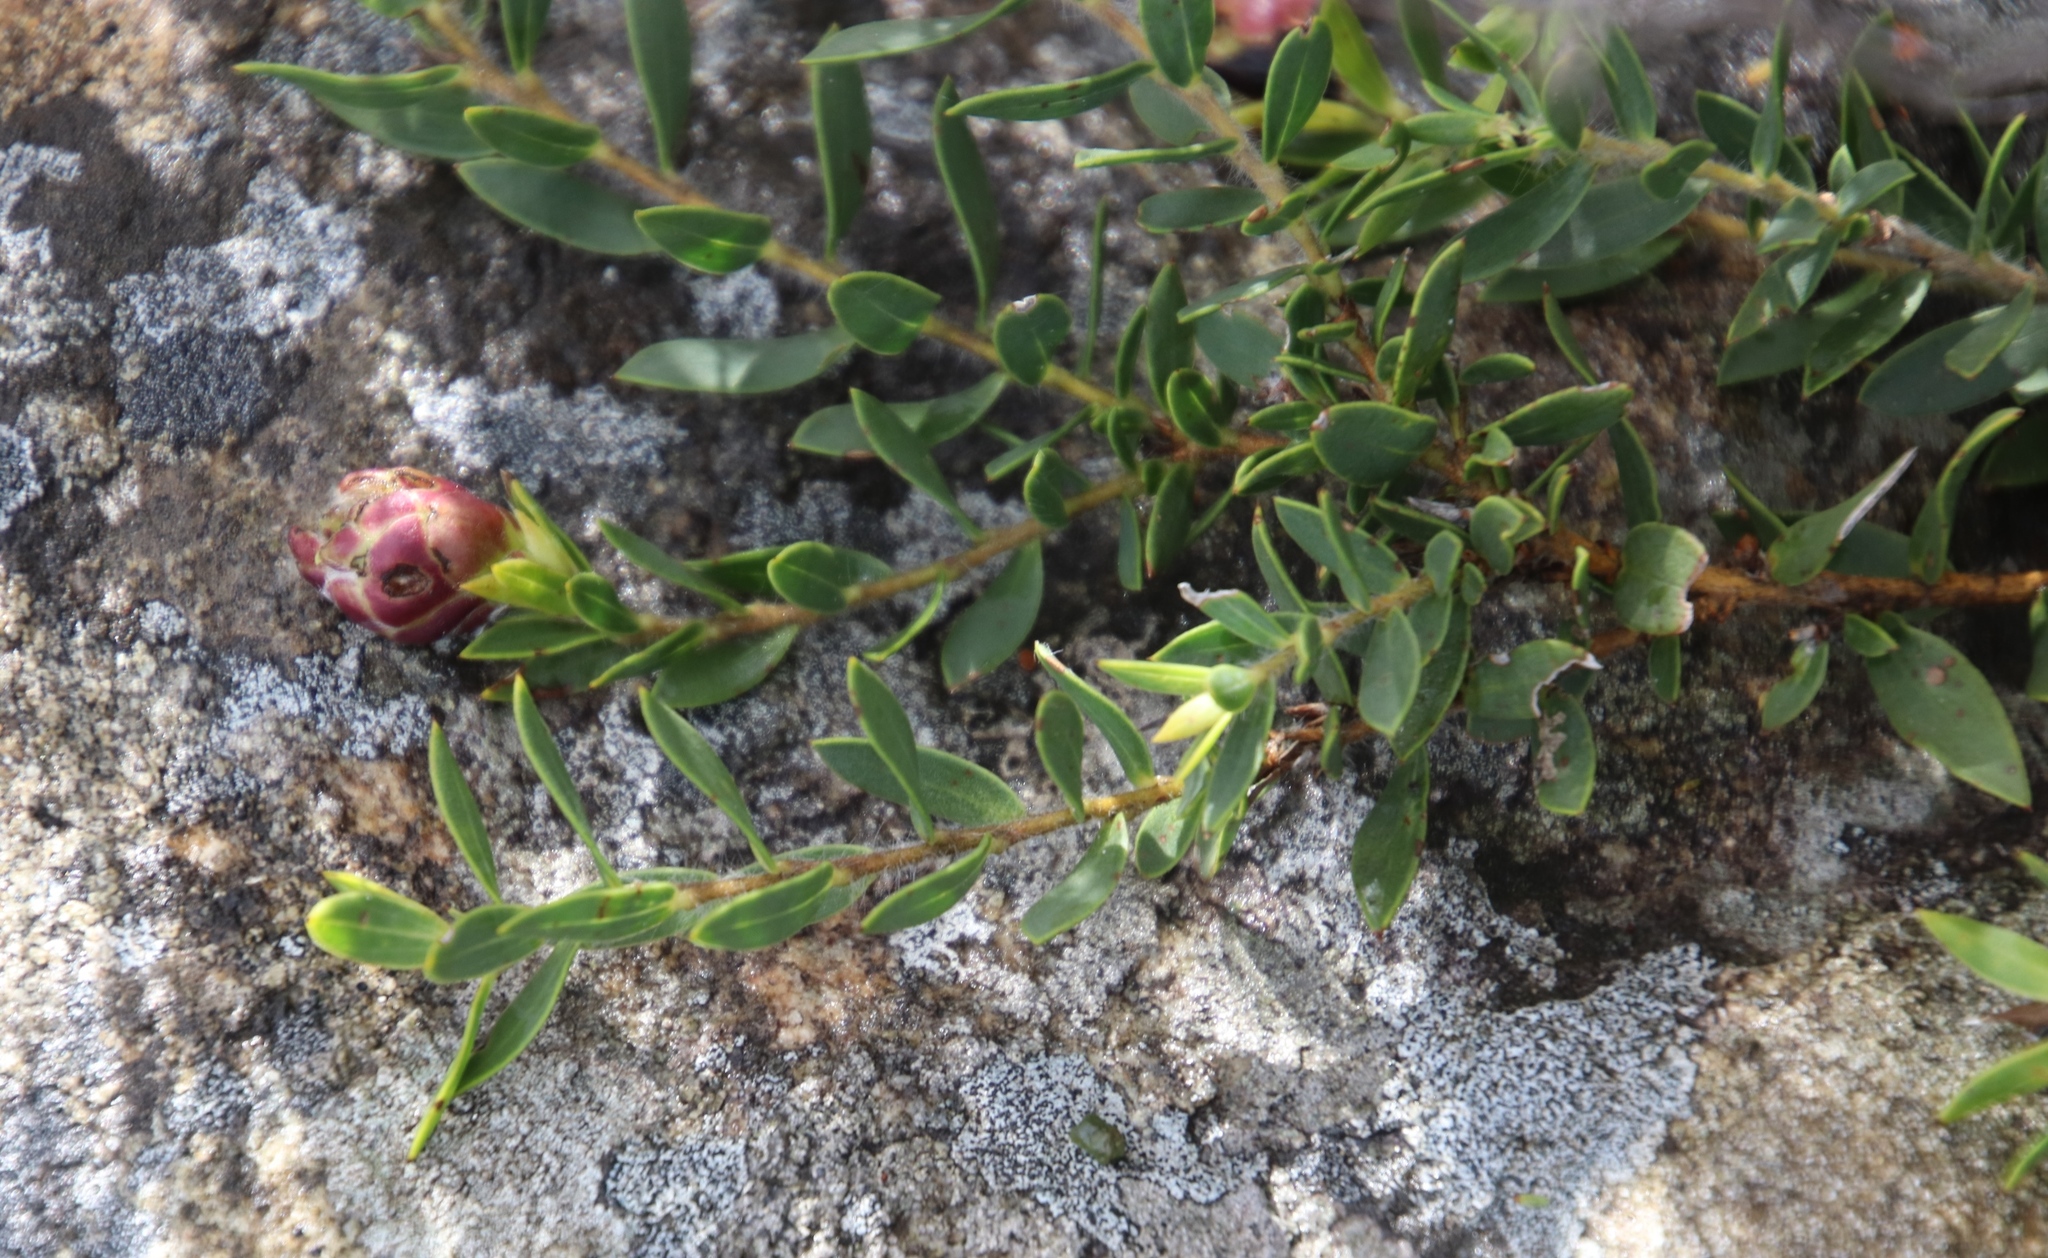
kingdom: Plantae
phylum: Tracheophyta
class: Magnoliopsida
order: Fabales
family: Fabaceae
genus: Liparia
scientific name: Liparia parva
